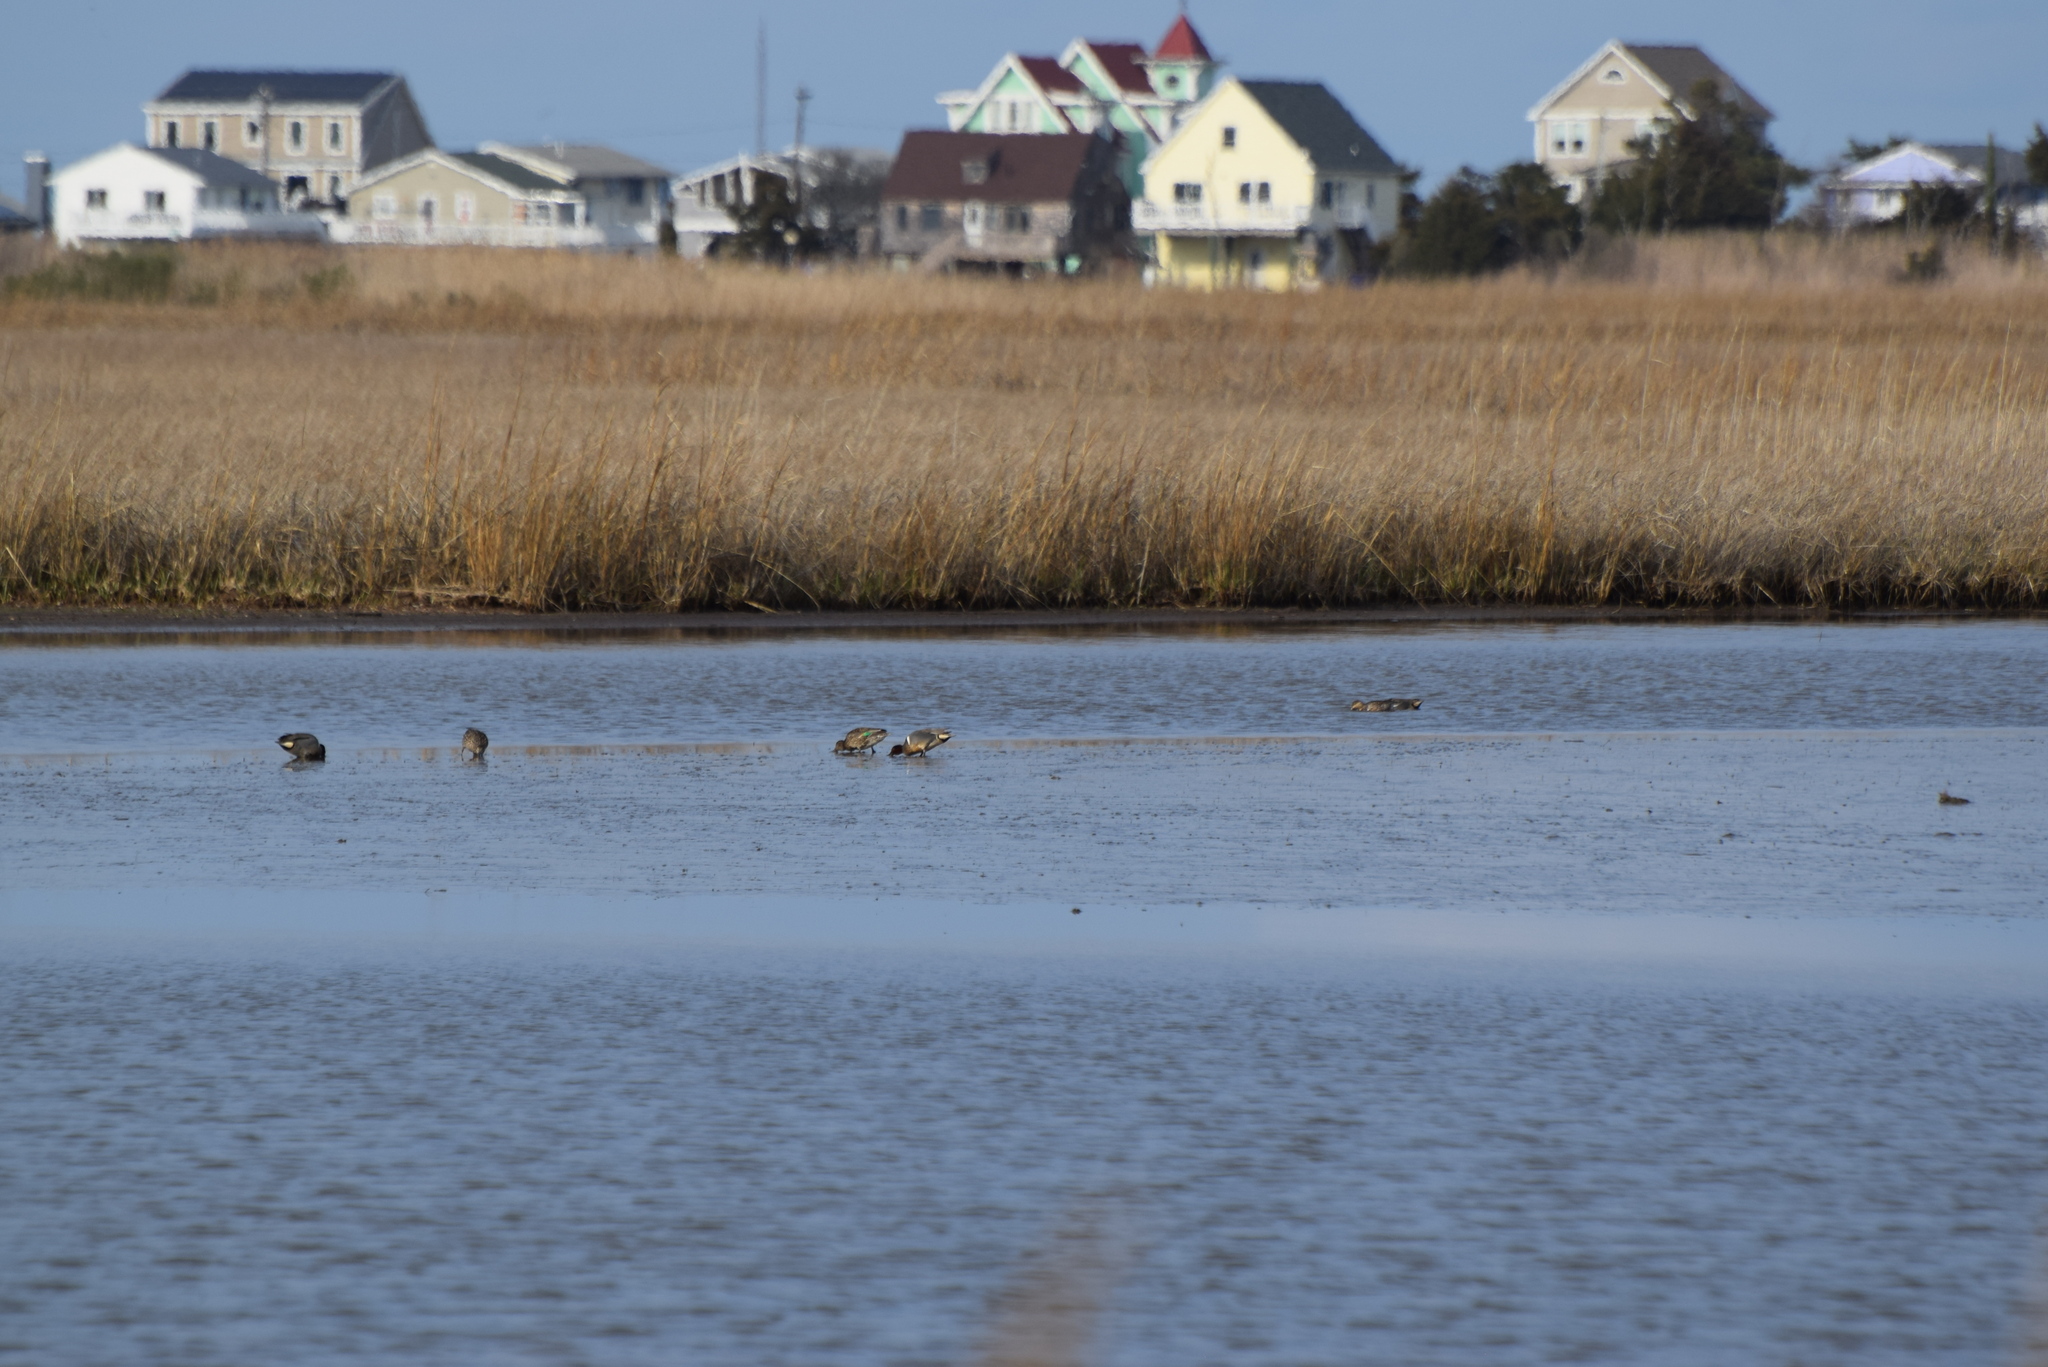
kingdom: Animalia
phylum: Chordata
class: Aves
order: Anseriformes
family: Anatidae
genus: Anas
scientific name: Anas crecca
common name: Eurasian teal
